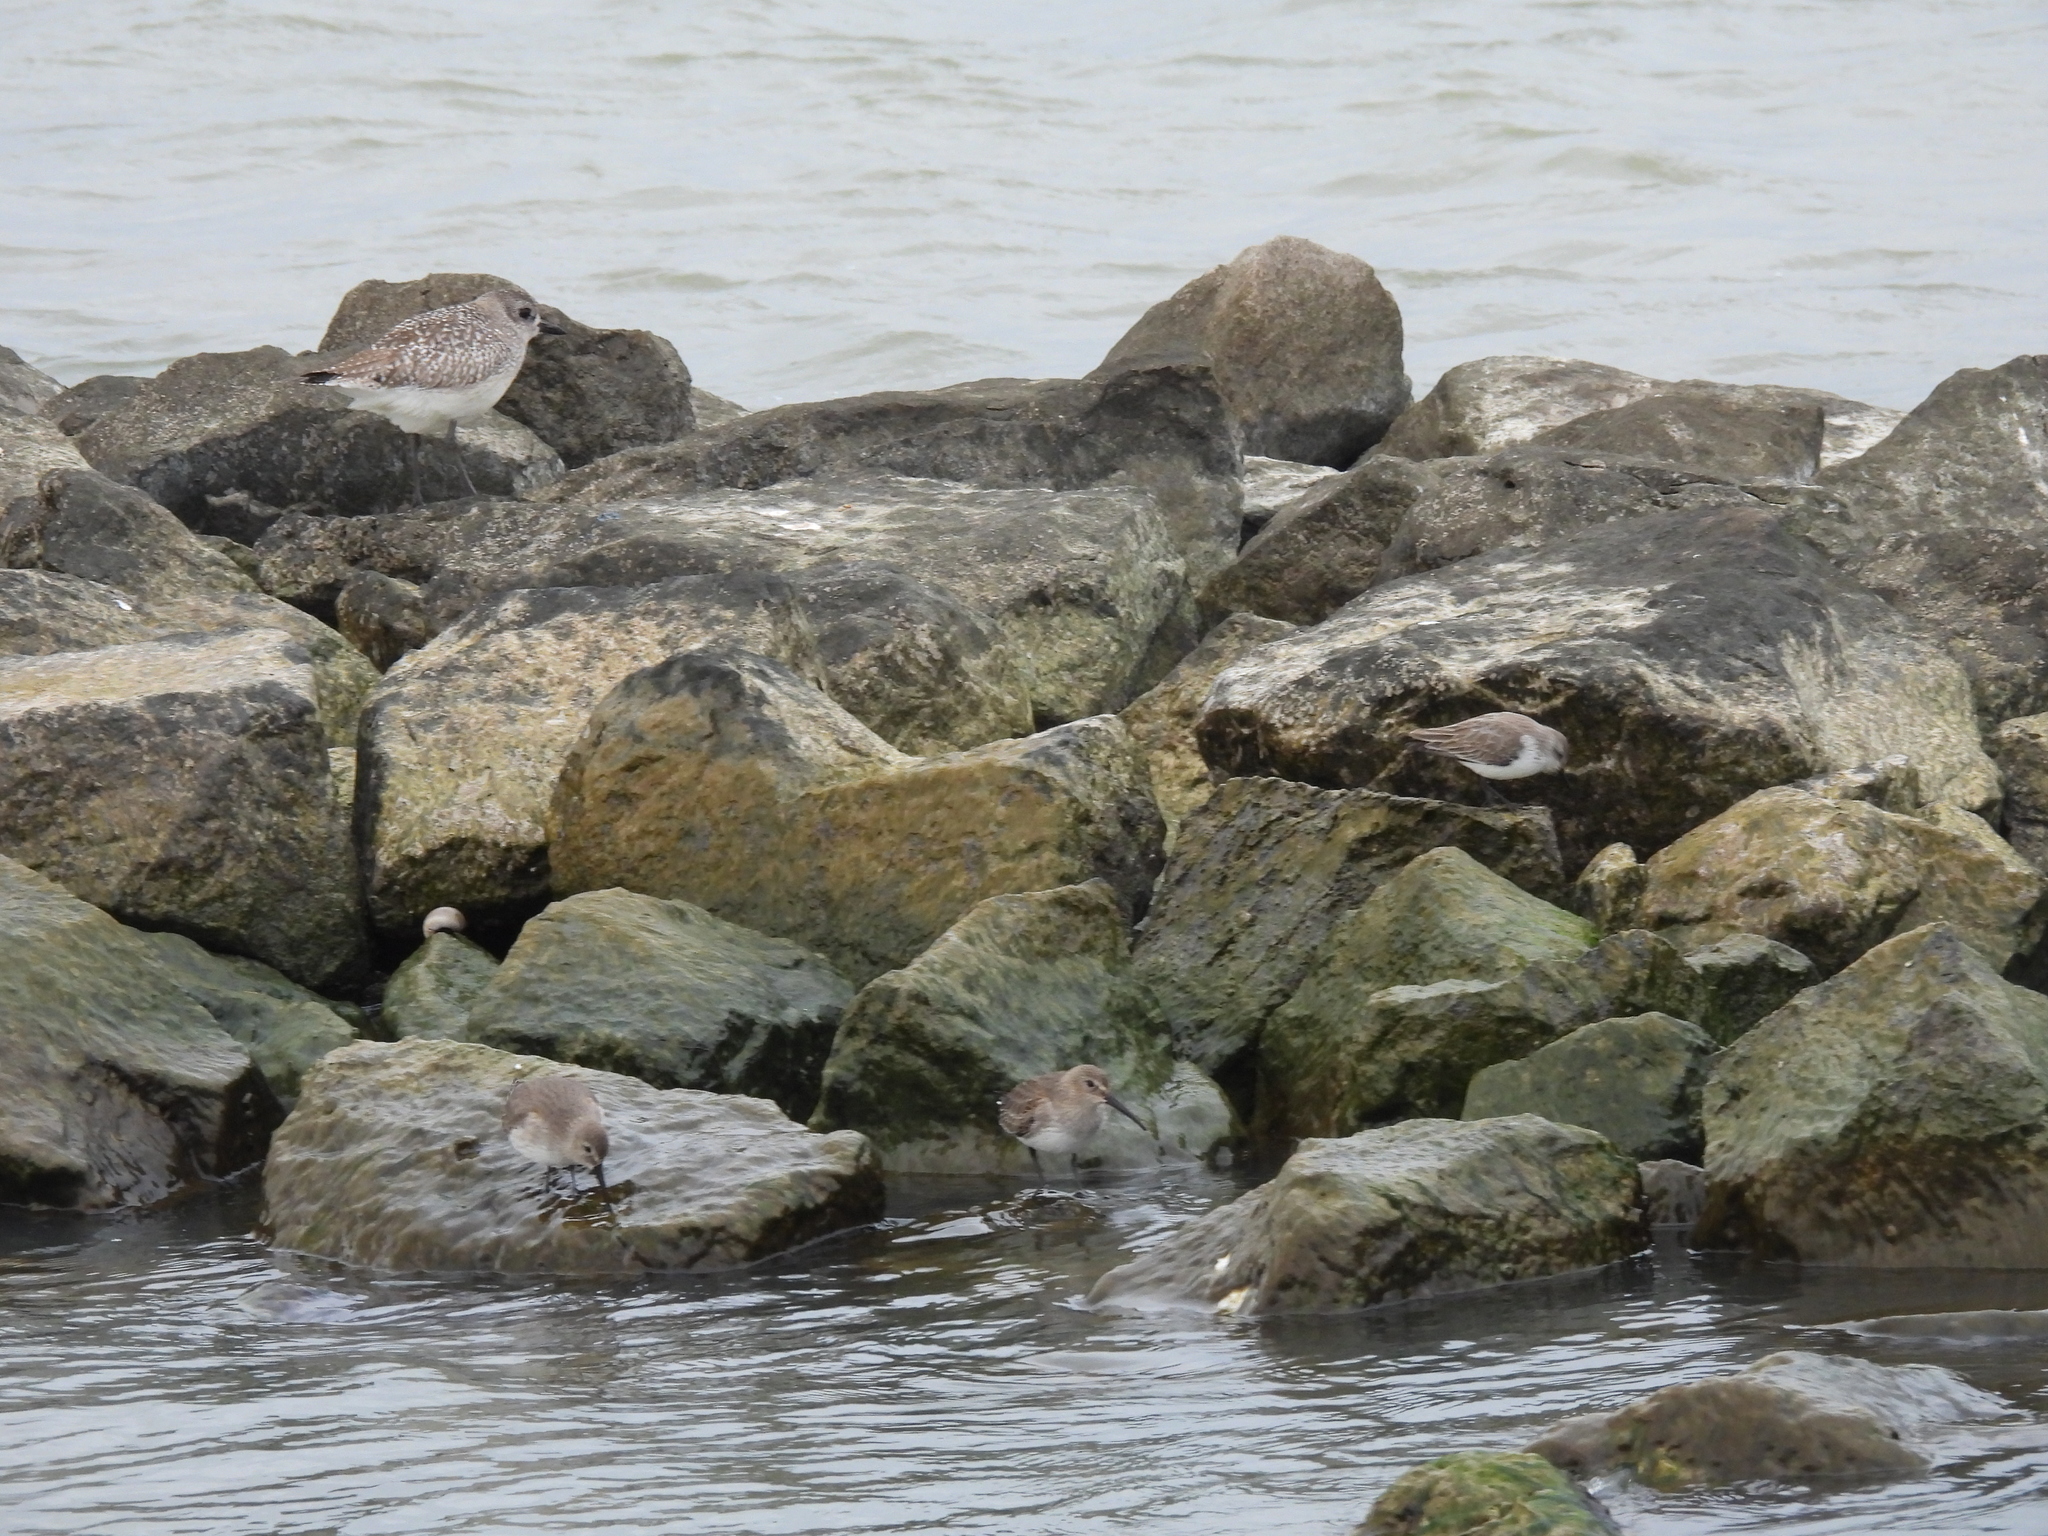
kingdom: Animalia
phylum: Chordata
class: Aves
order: Charadriiformes
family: Scolopacidae
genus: Calidris
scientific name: Calidris alpina
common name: Dunlin
